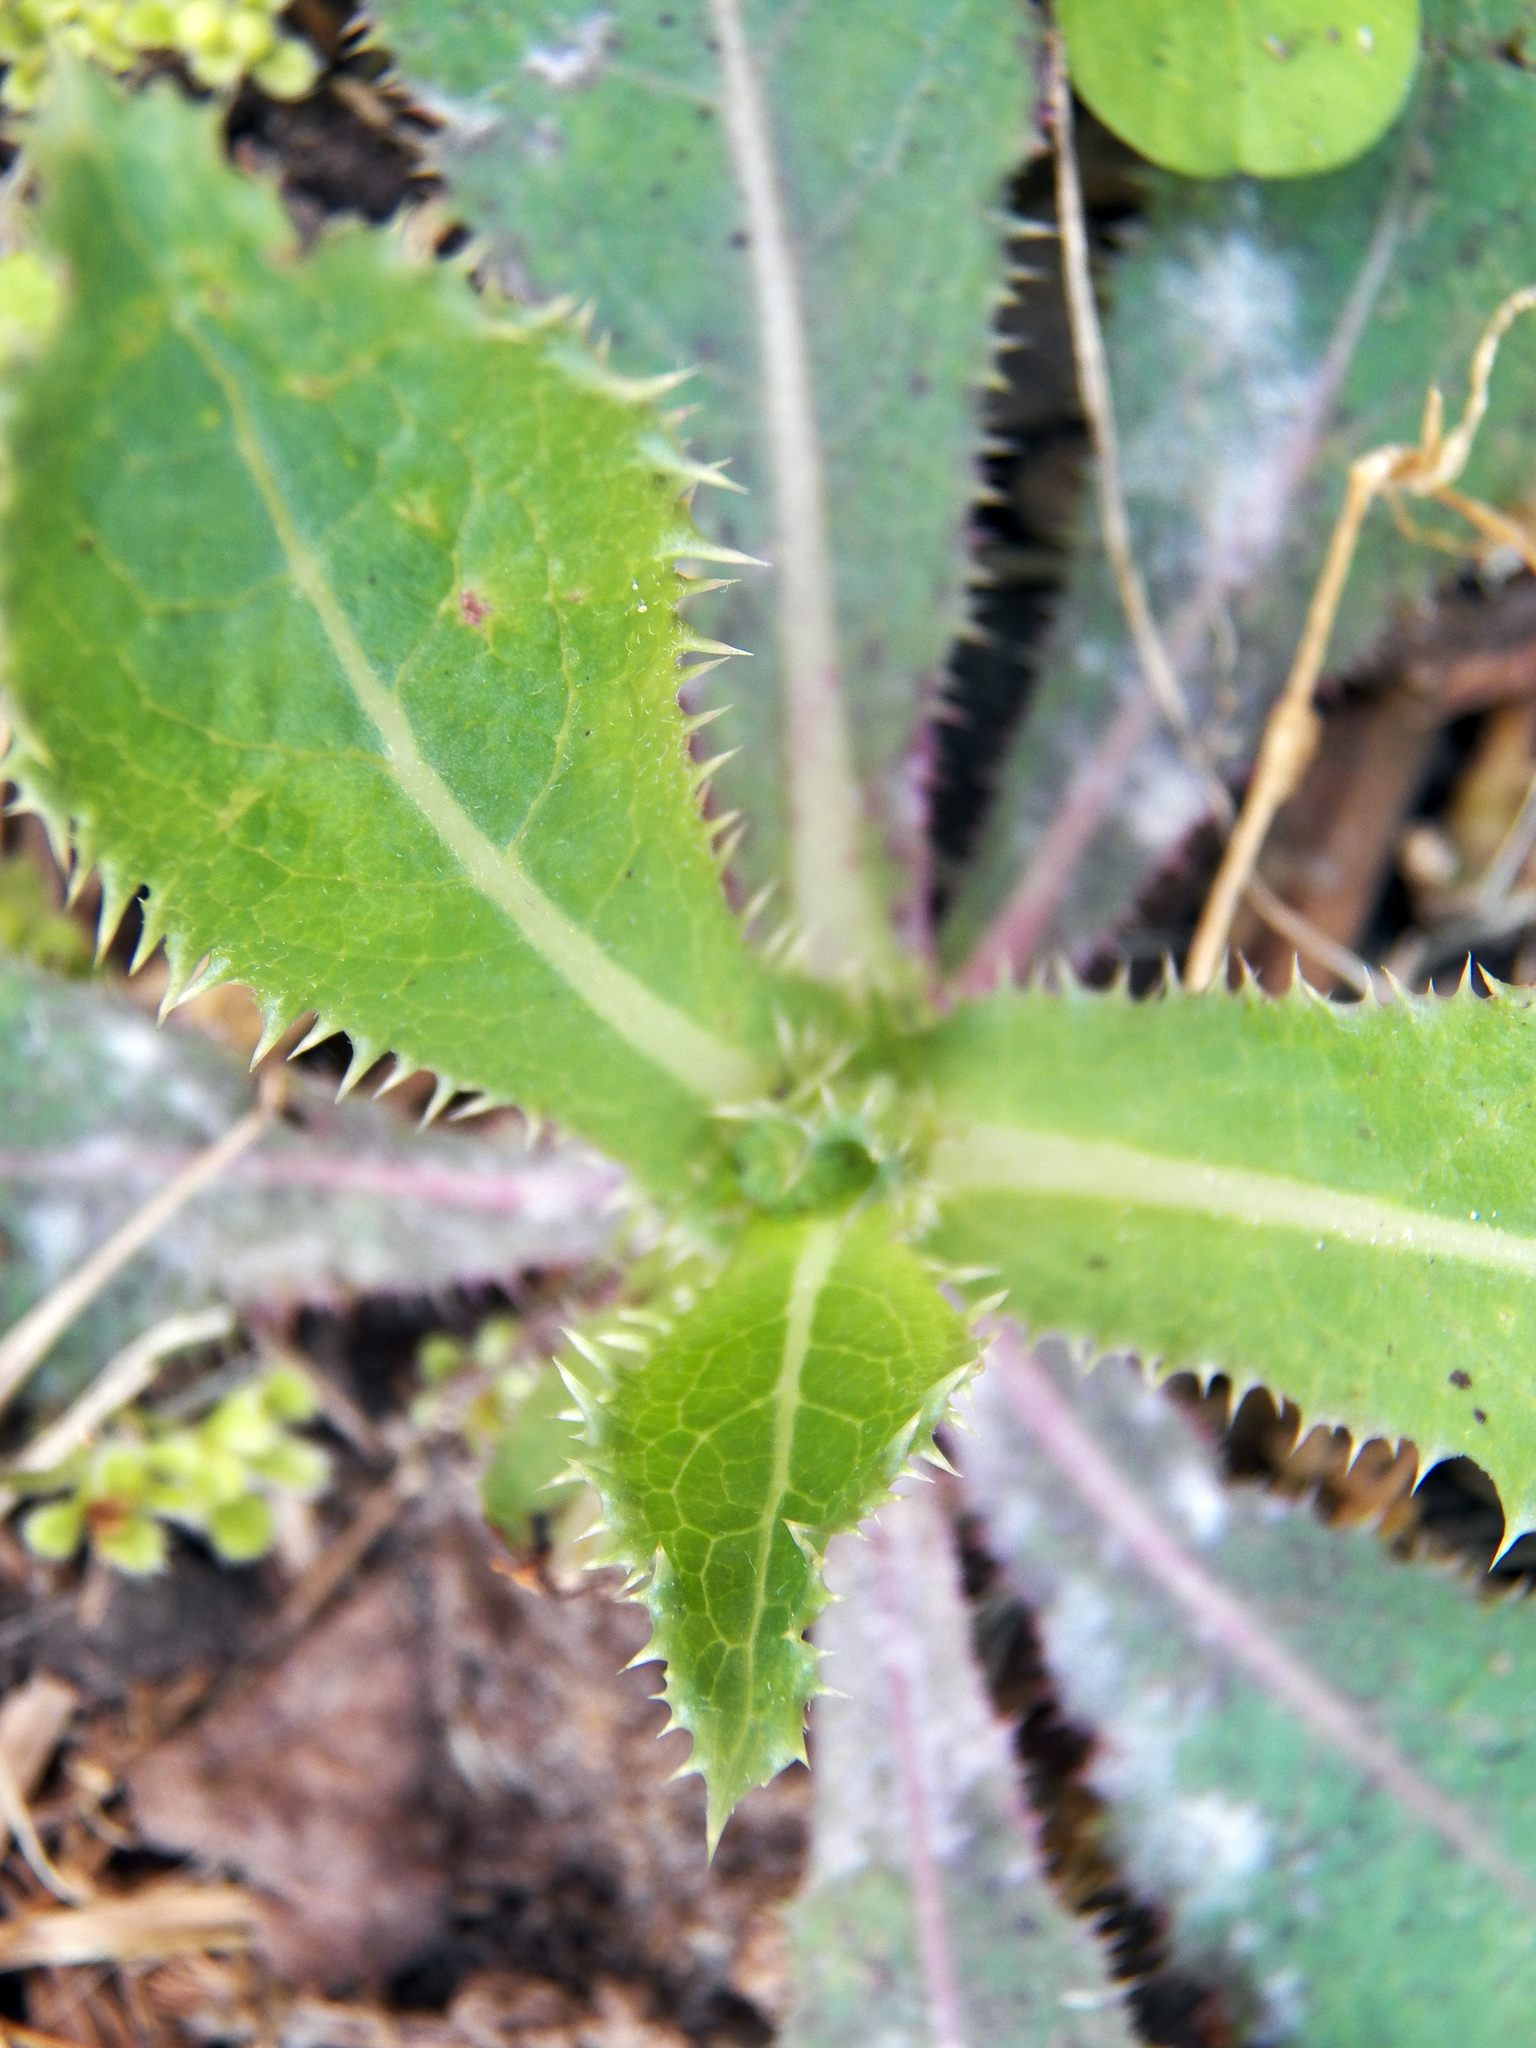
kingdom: Plantae
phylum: Tracheophyta
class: Magnoliopsida
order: Asterales
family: Asteraceae
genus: Sonchus
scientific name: Sonchus asper
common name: Prickly sow-thistle
